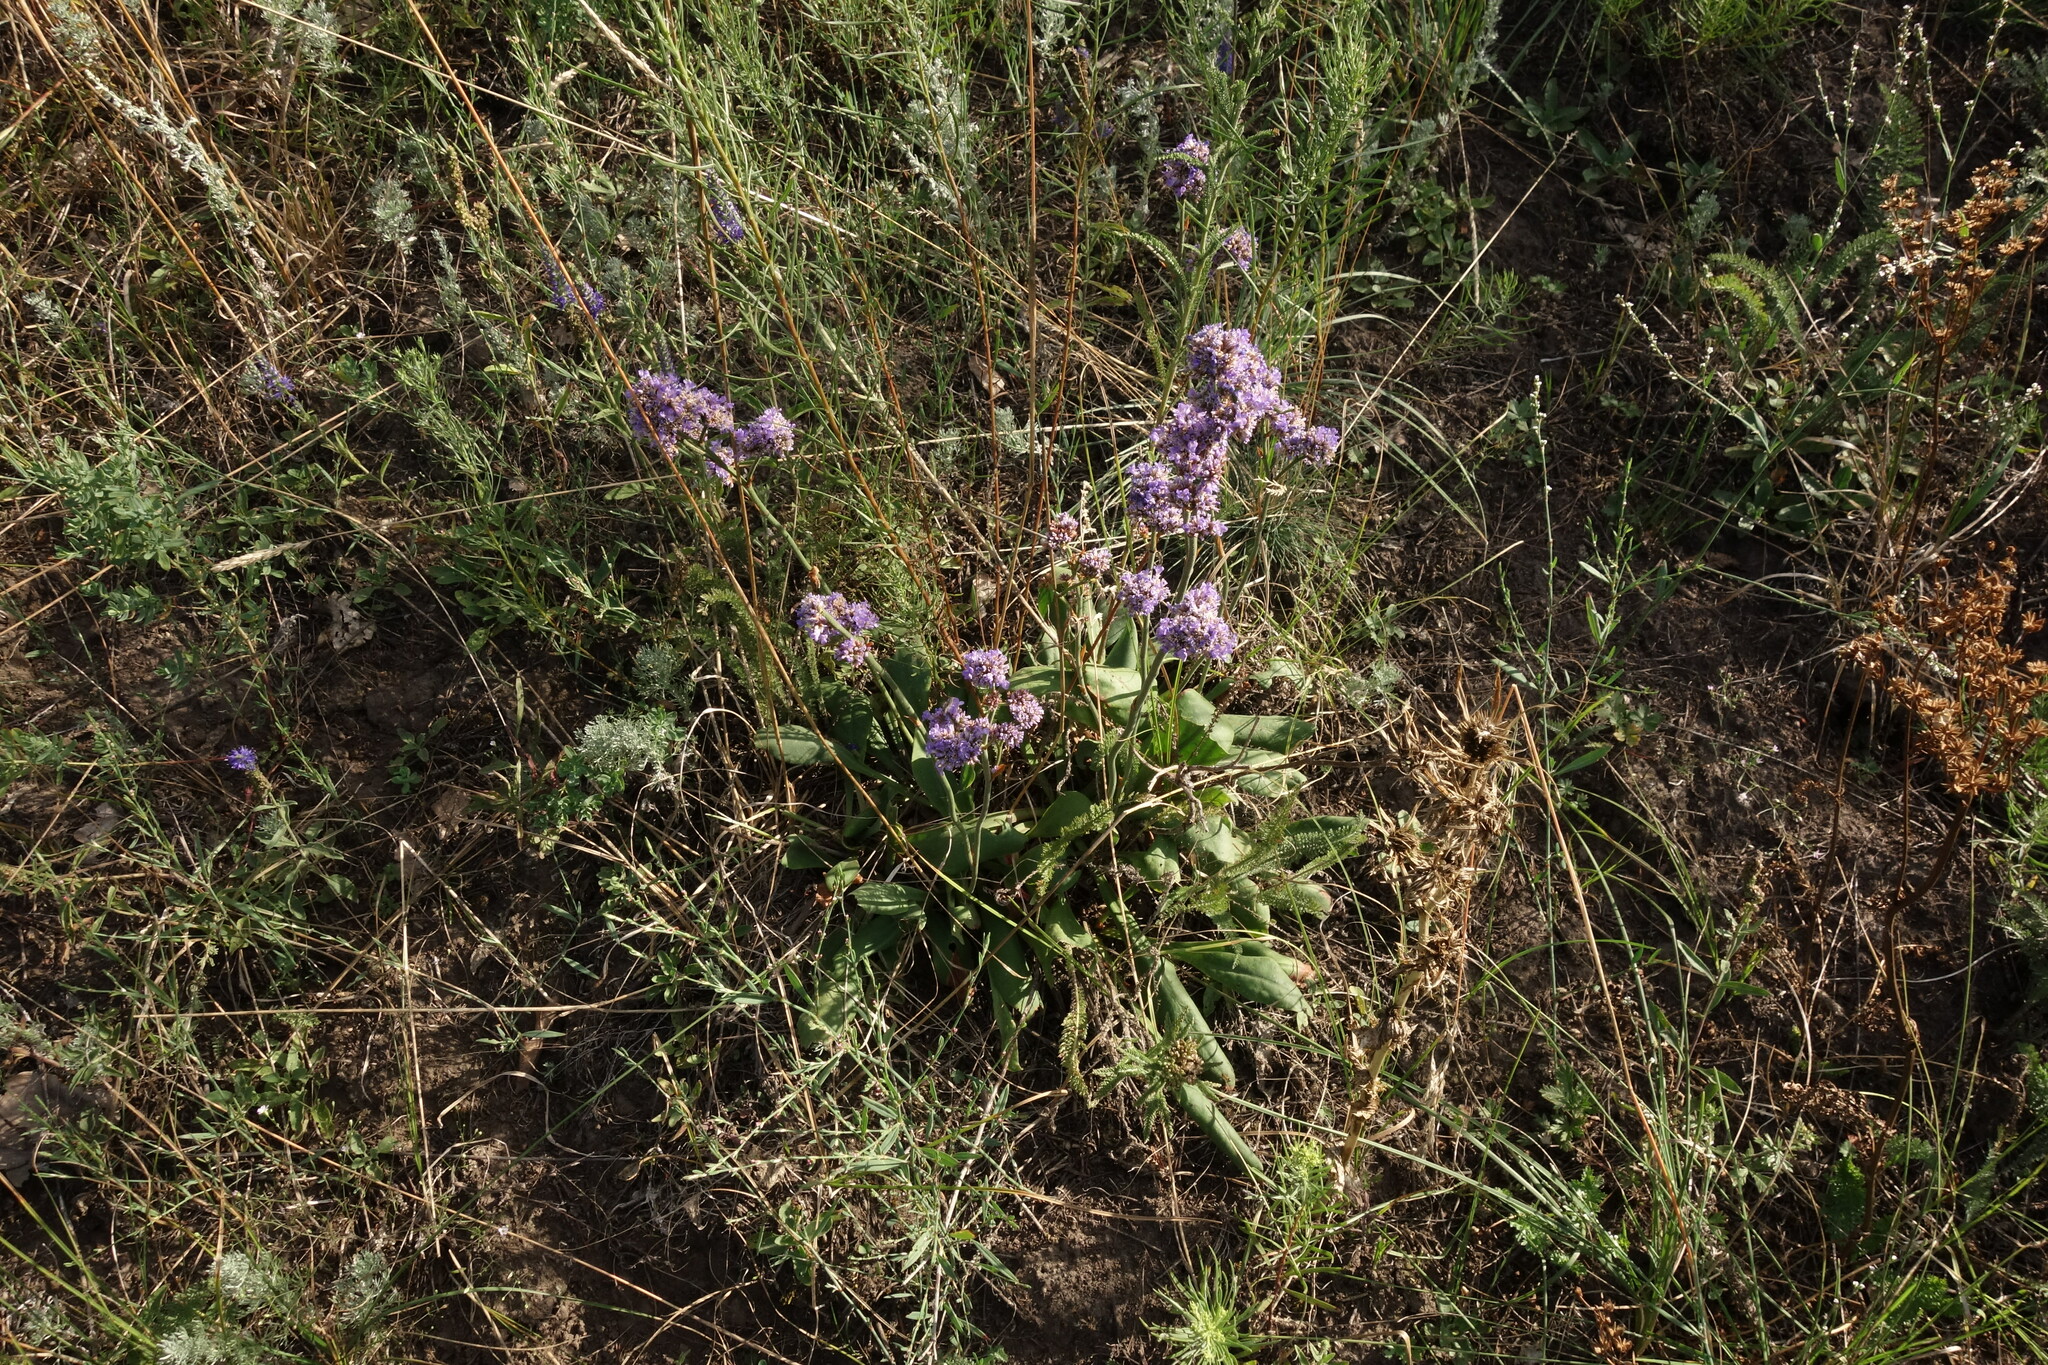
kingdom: Plantae
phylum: Tracheophyta
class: Magnoliopsida
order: Caryophyllales
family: Plumbaginaceae
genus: Limonium
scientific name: Limonium tomentellum
